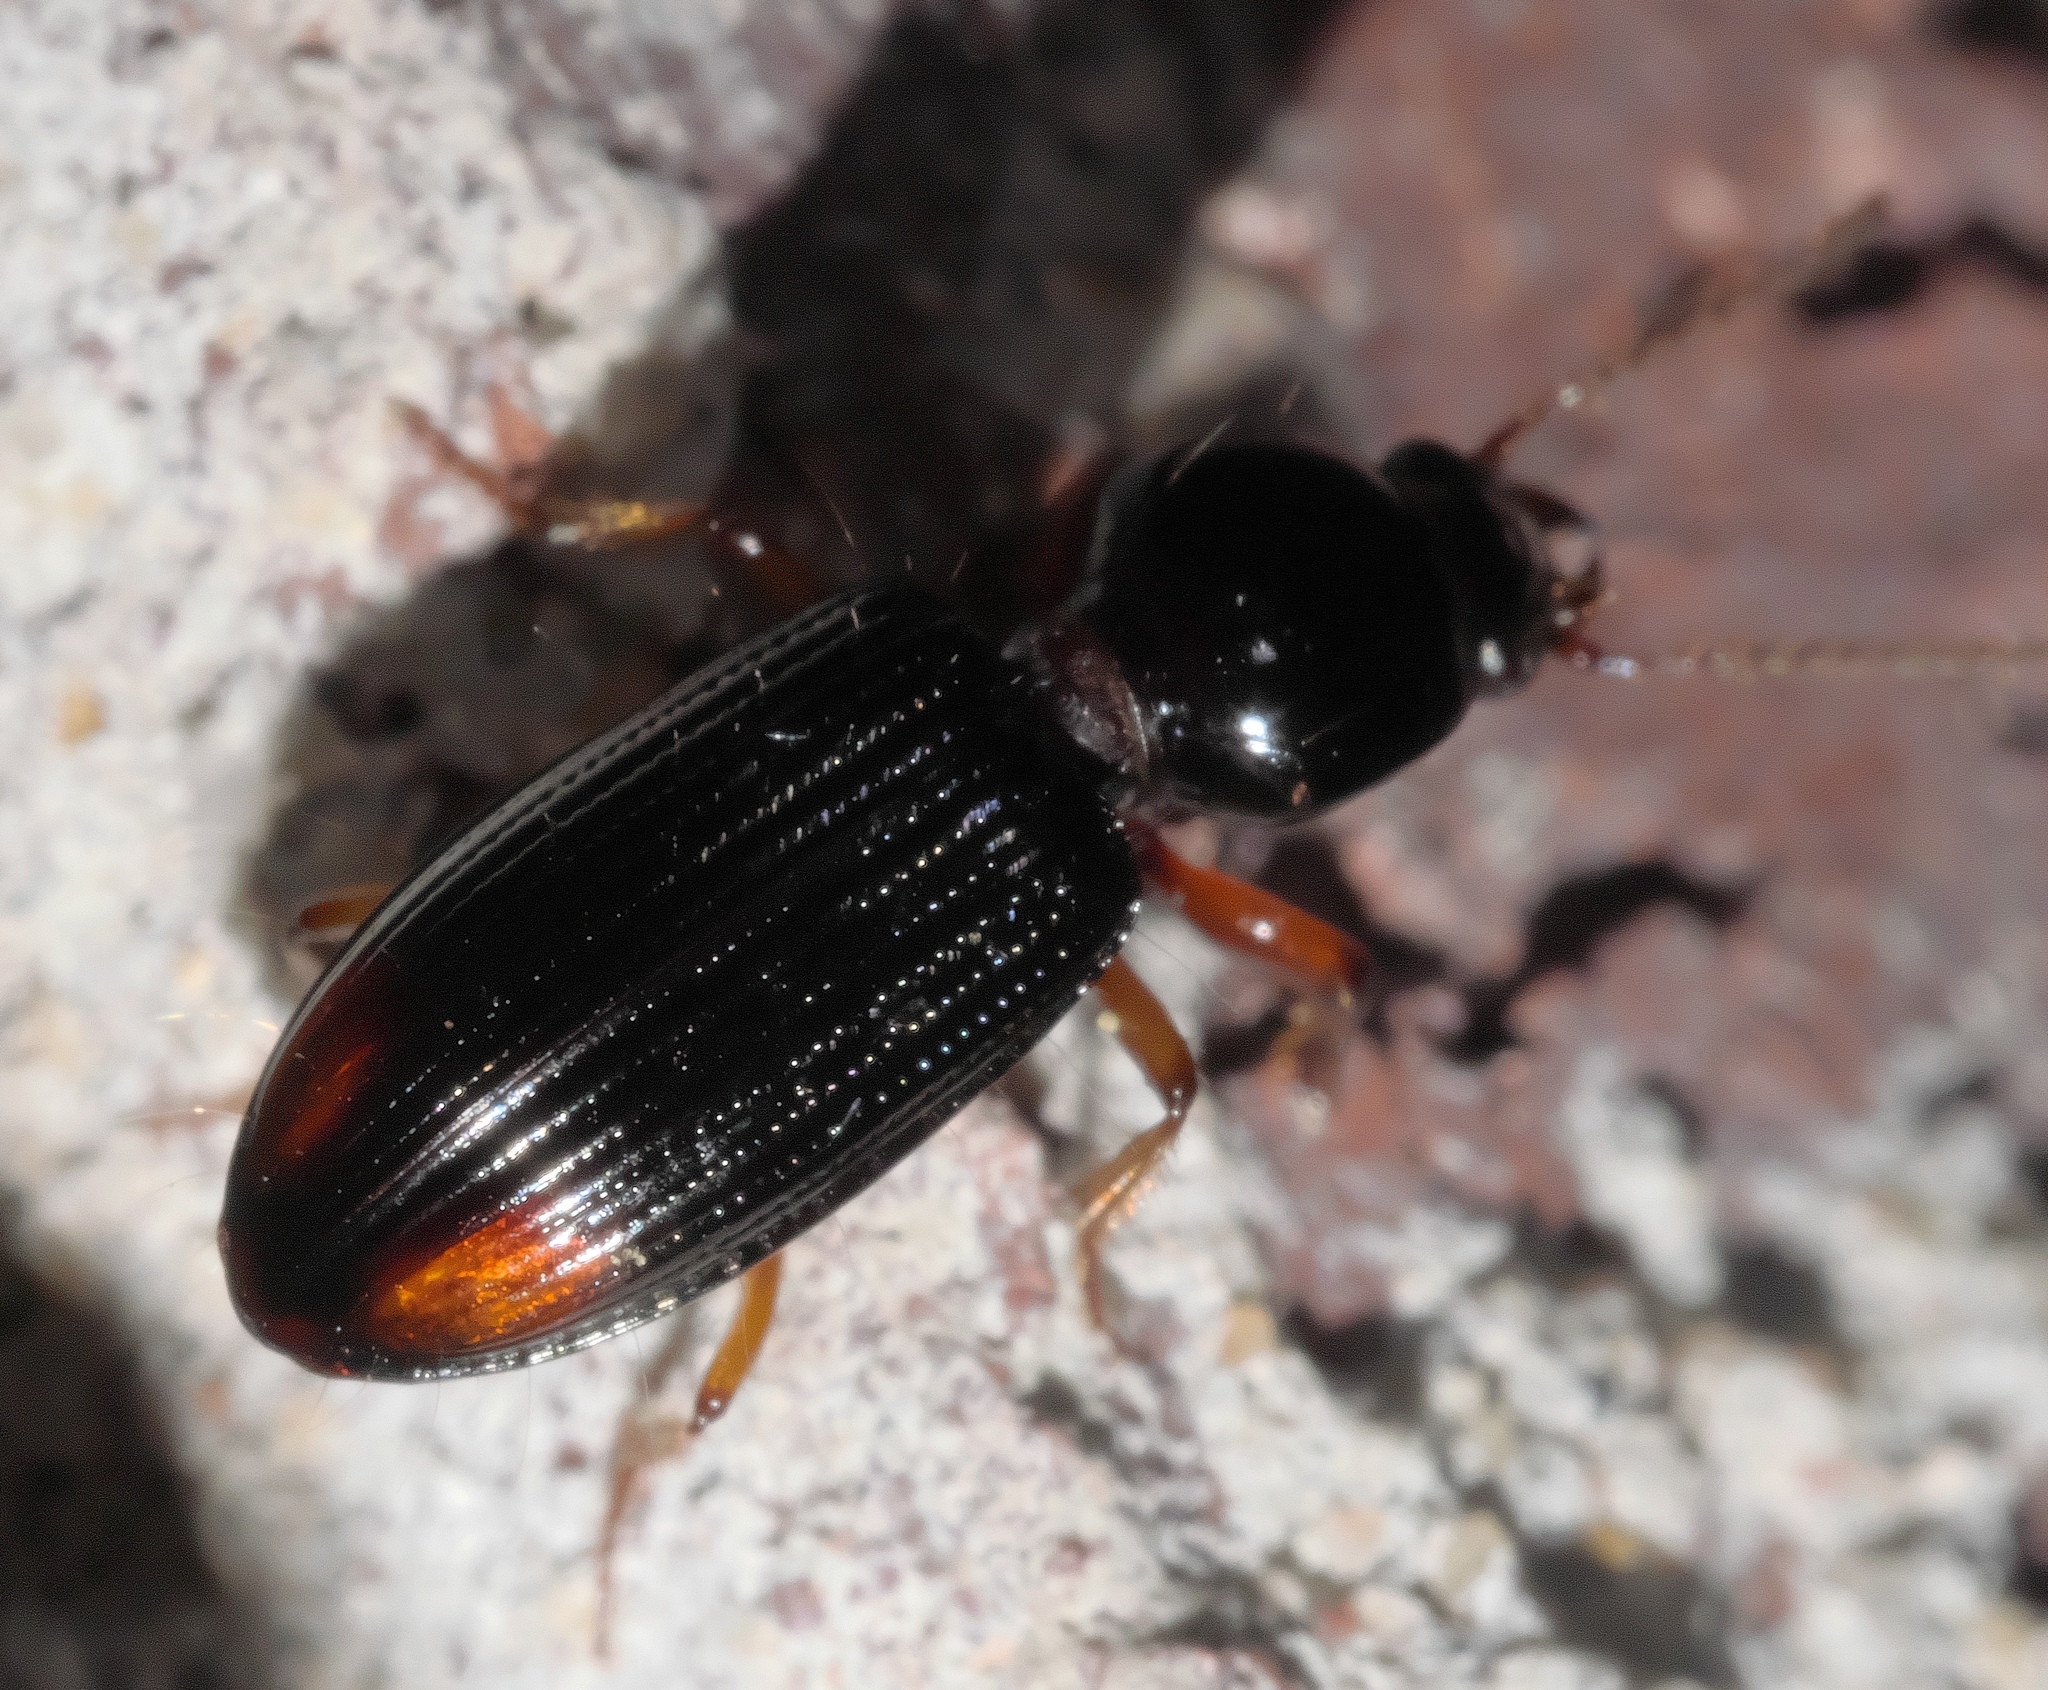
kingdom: Animalia
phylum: Arthropoda
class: Insecta
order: Coleoptera
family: Carabidae
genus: Aspidoglossa
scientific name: Aspidoglossa subangulata
